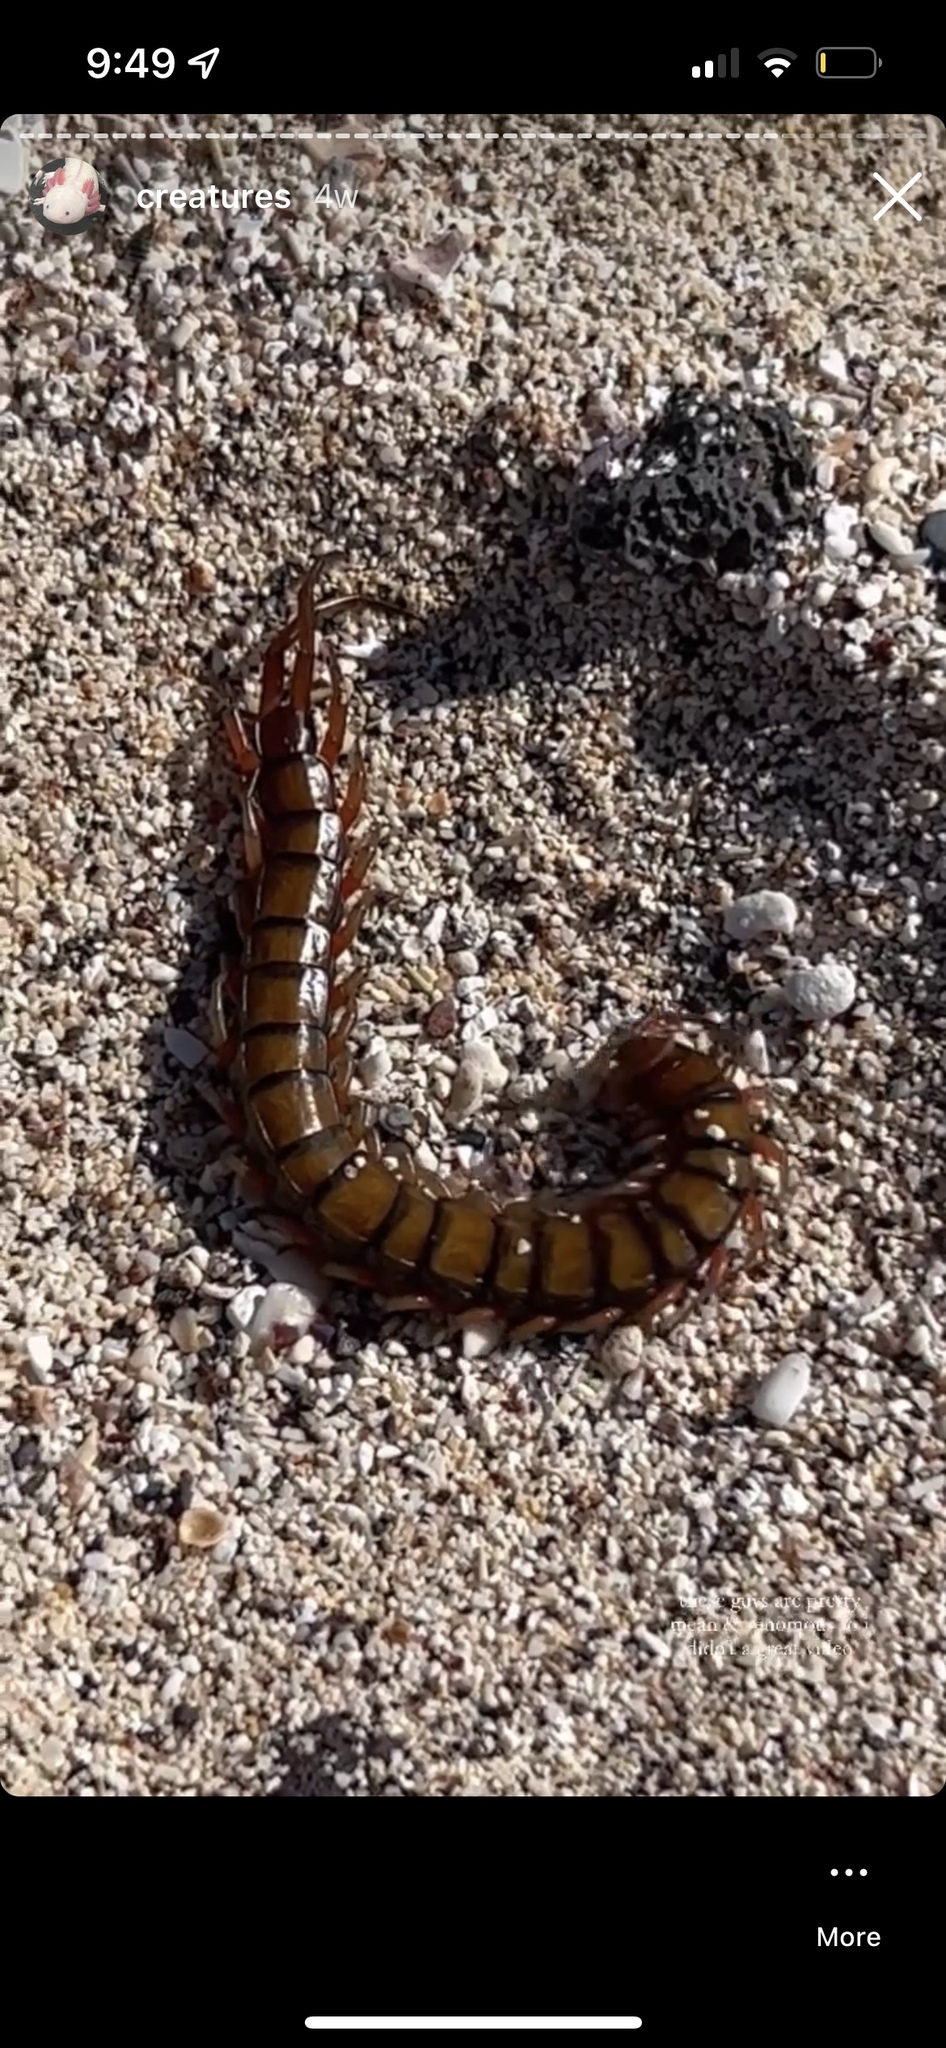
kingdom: Animalia
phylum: Arthropoda
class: Chilopoda
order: Scolopendromorpha
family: Scolopendridae
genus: Scolopendra
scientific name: Scolopendra subspinipes
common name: Centipede
